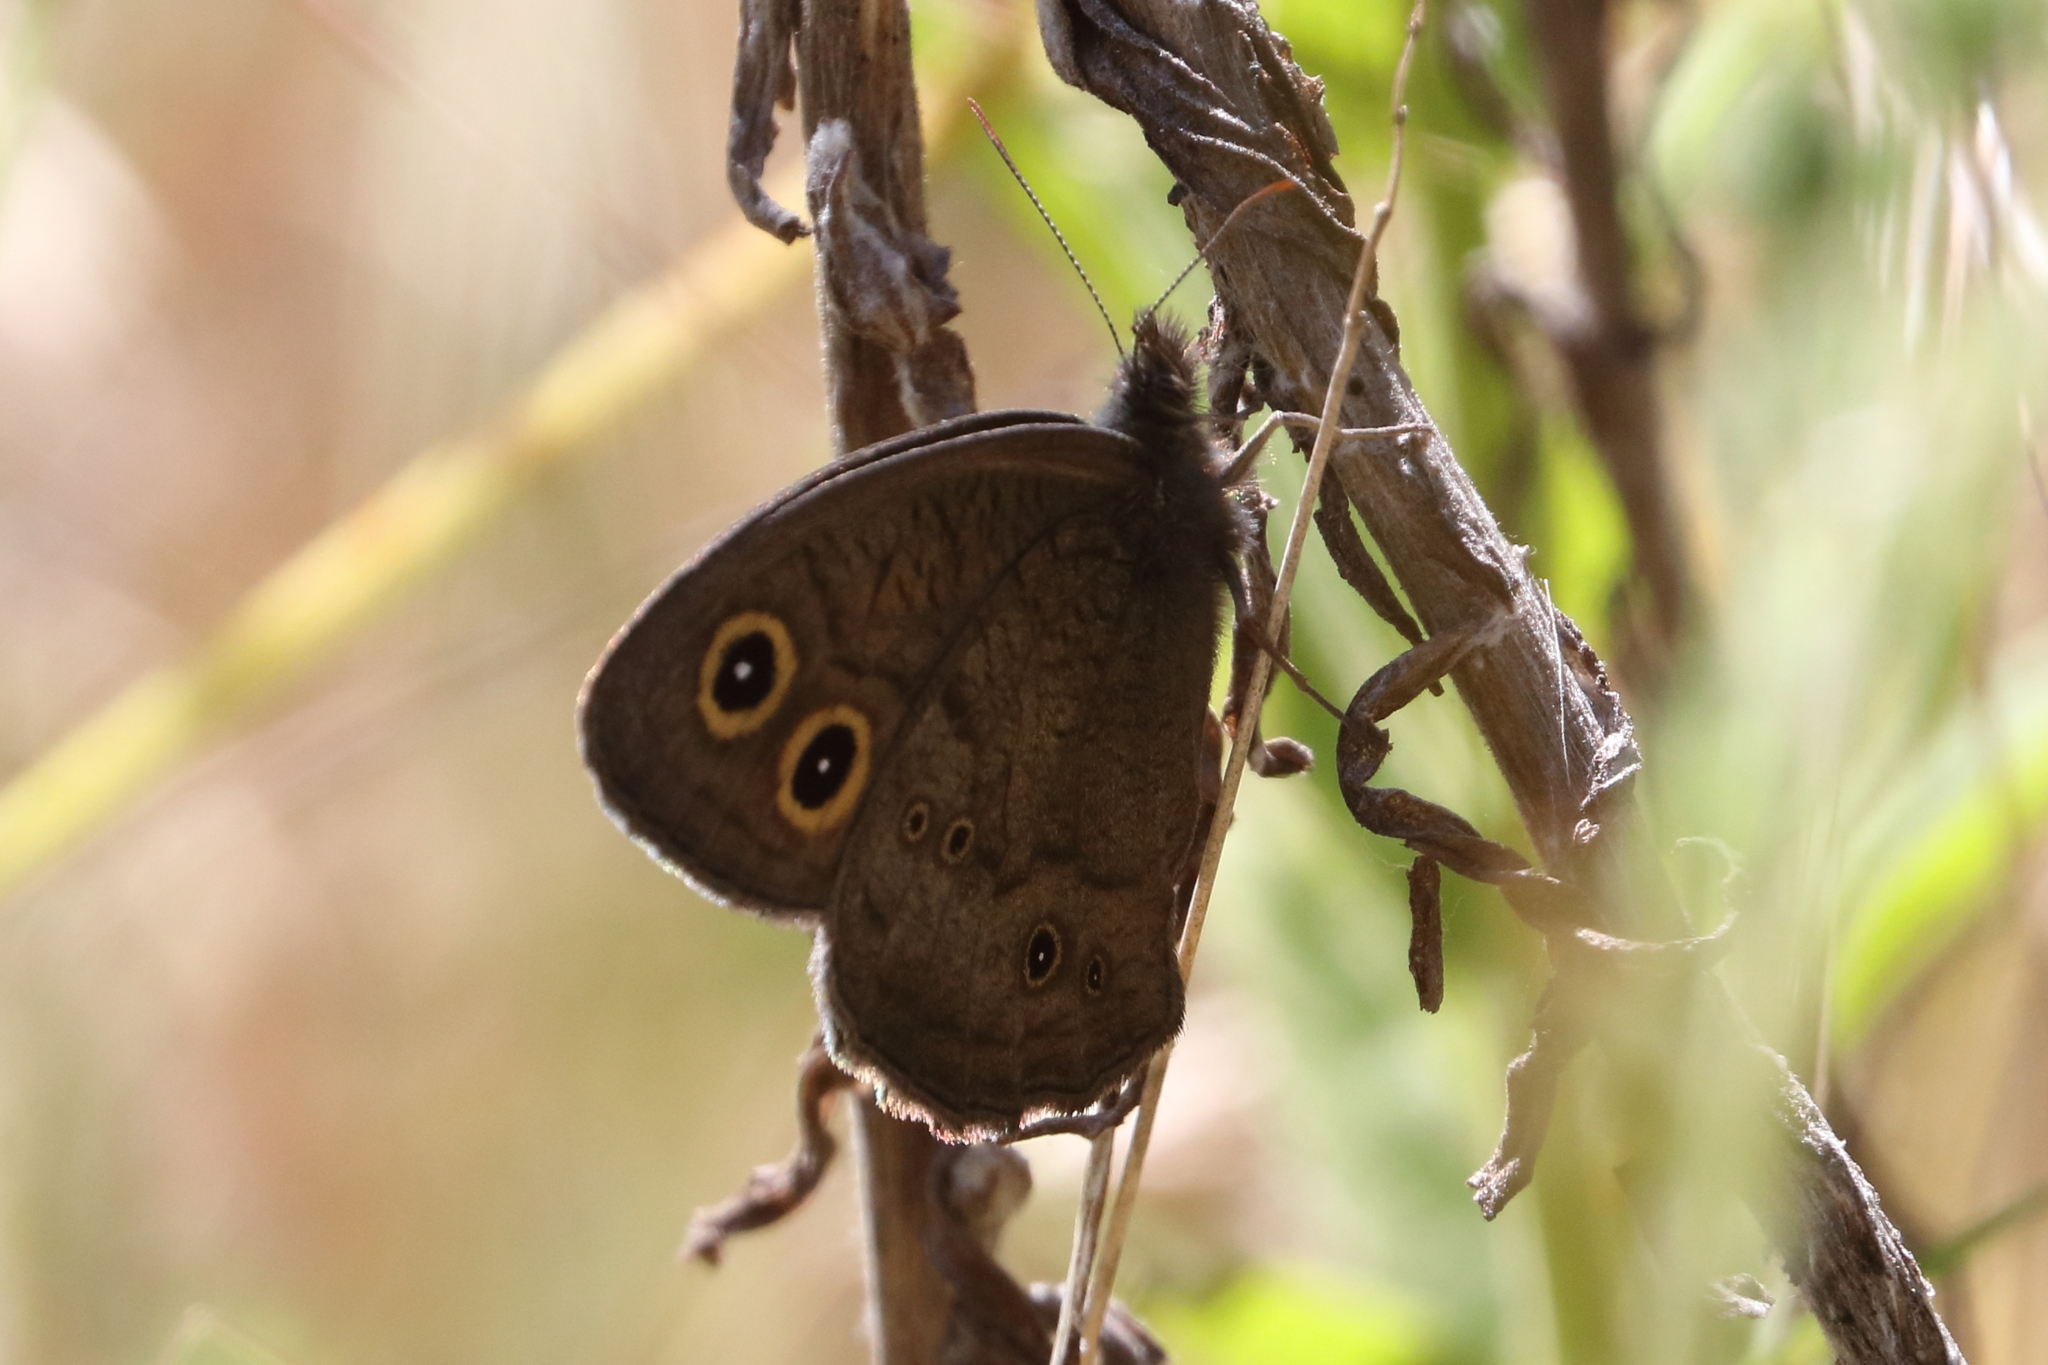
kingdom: Animalia
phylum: Arthropoda
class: Insecta
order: Lepidoptera
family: Nymphalidae
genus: Cercyonis
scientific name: Cercyonis pegala
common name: Common wood-nymph
